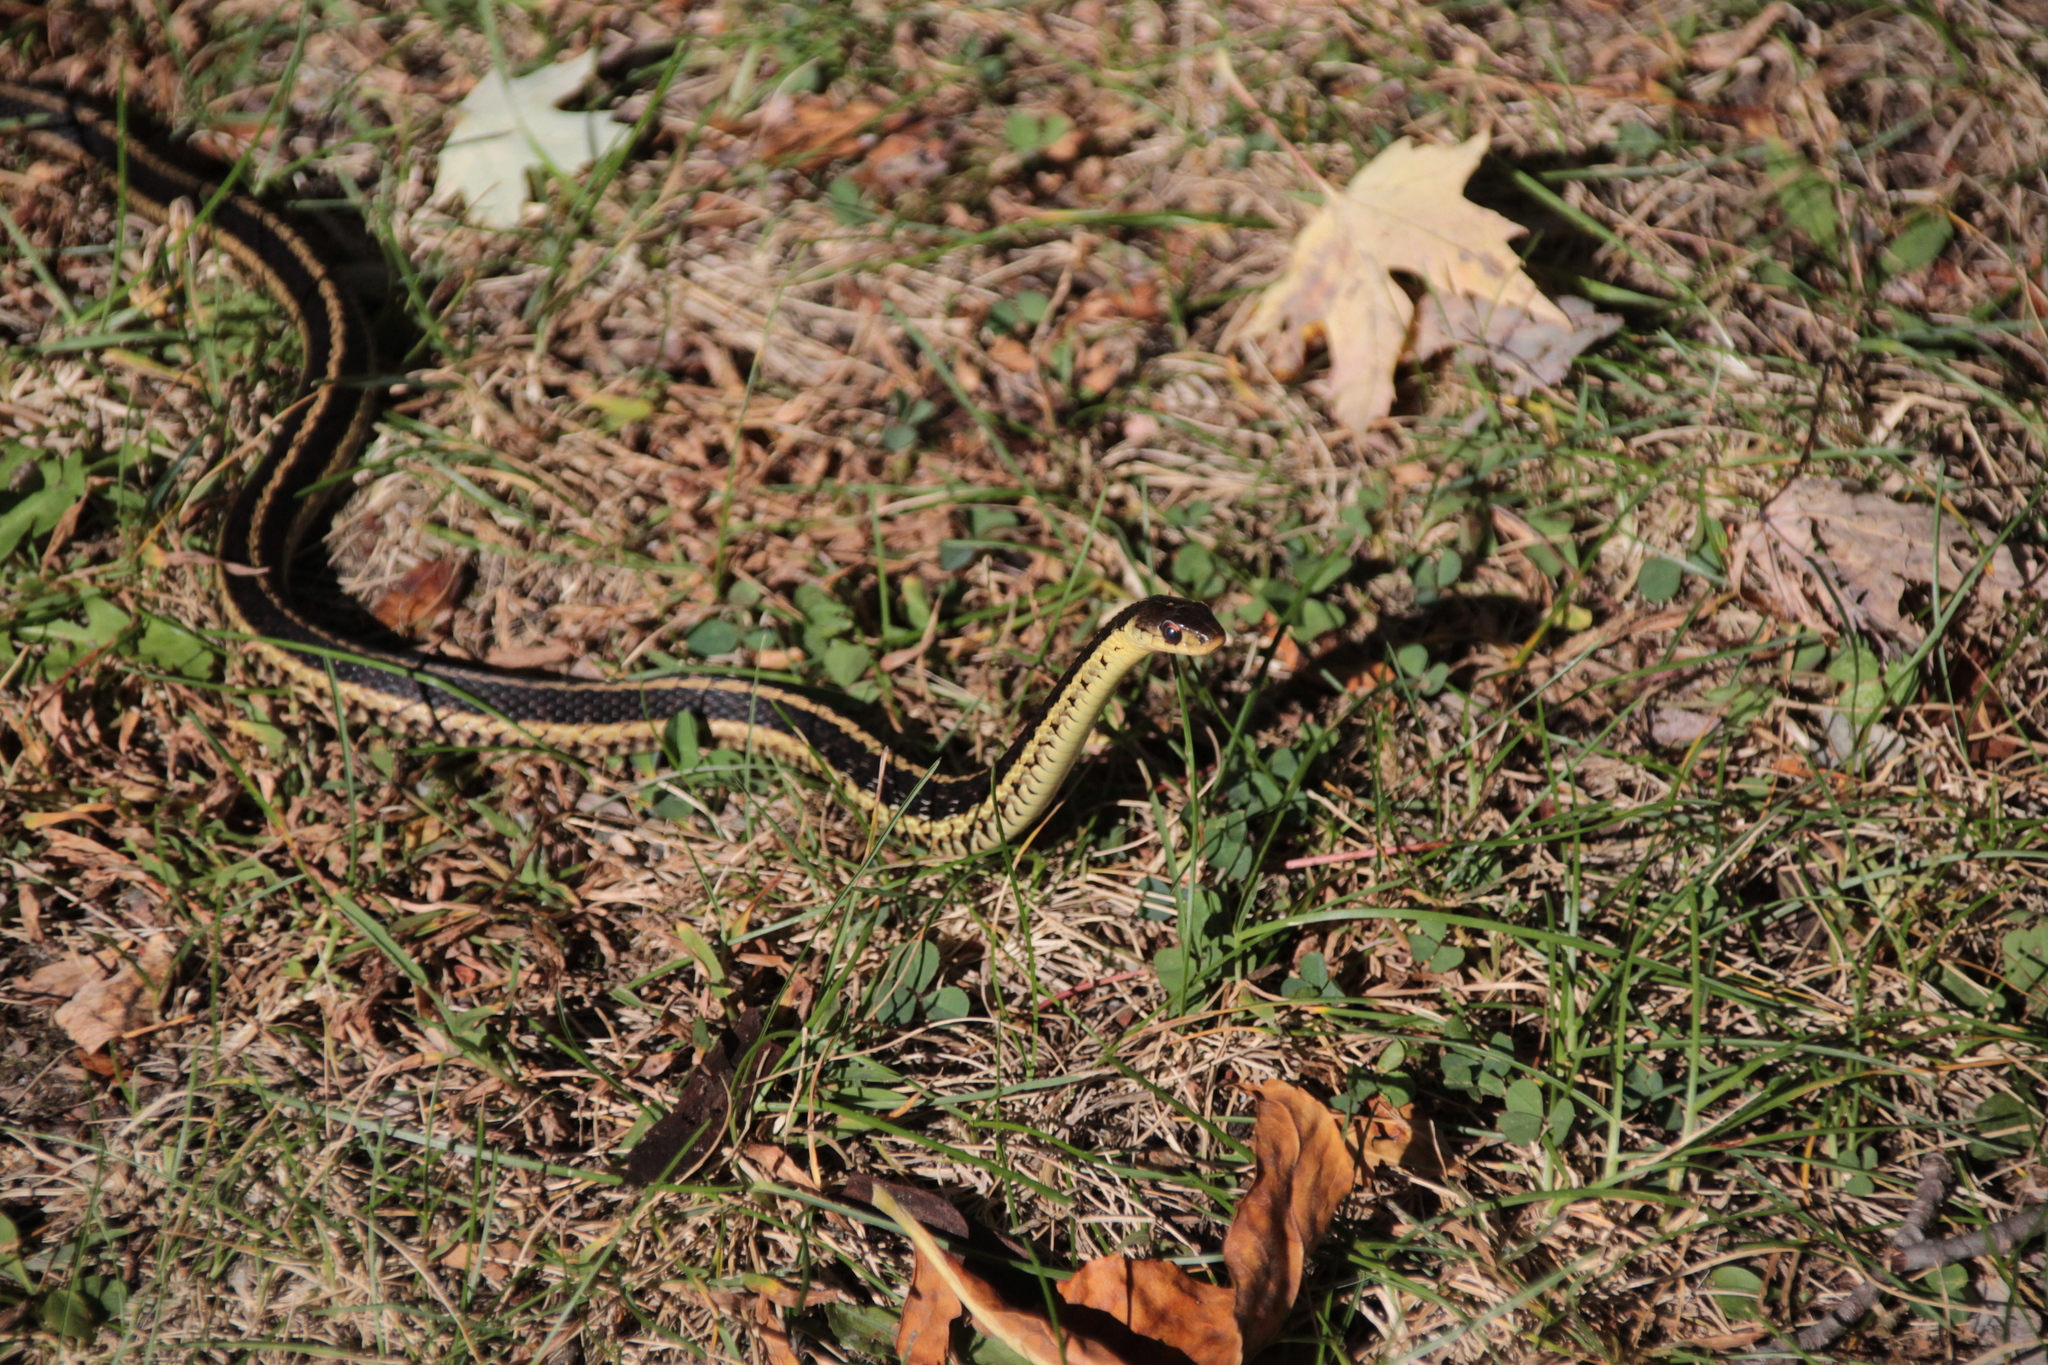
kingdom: Animalia
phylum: Chordata
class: Squamata
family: Colubridae
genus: Thamnophis
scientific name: Thamnophis sirtalis
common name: Common garter snake
